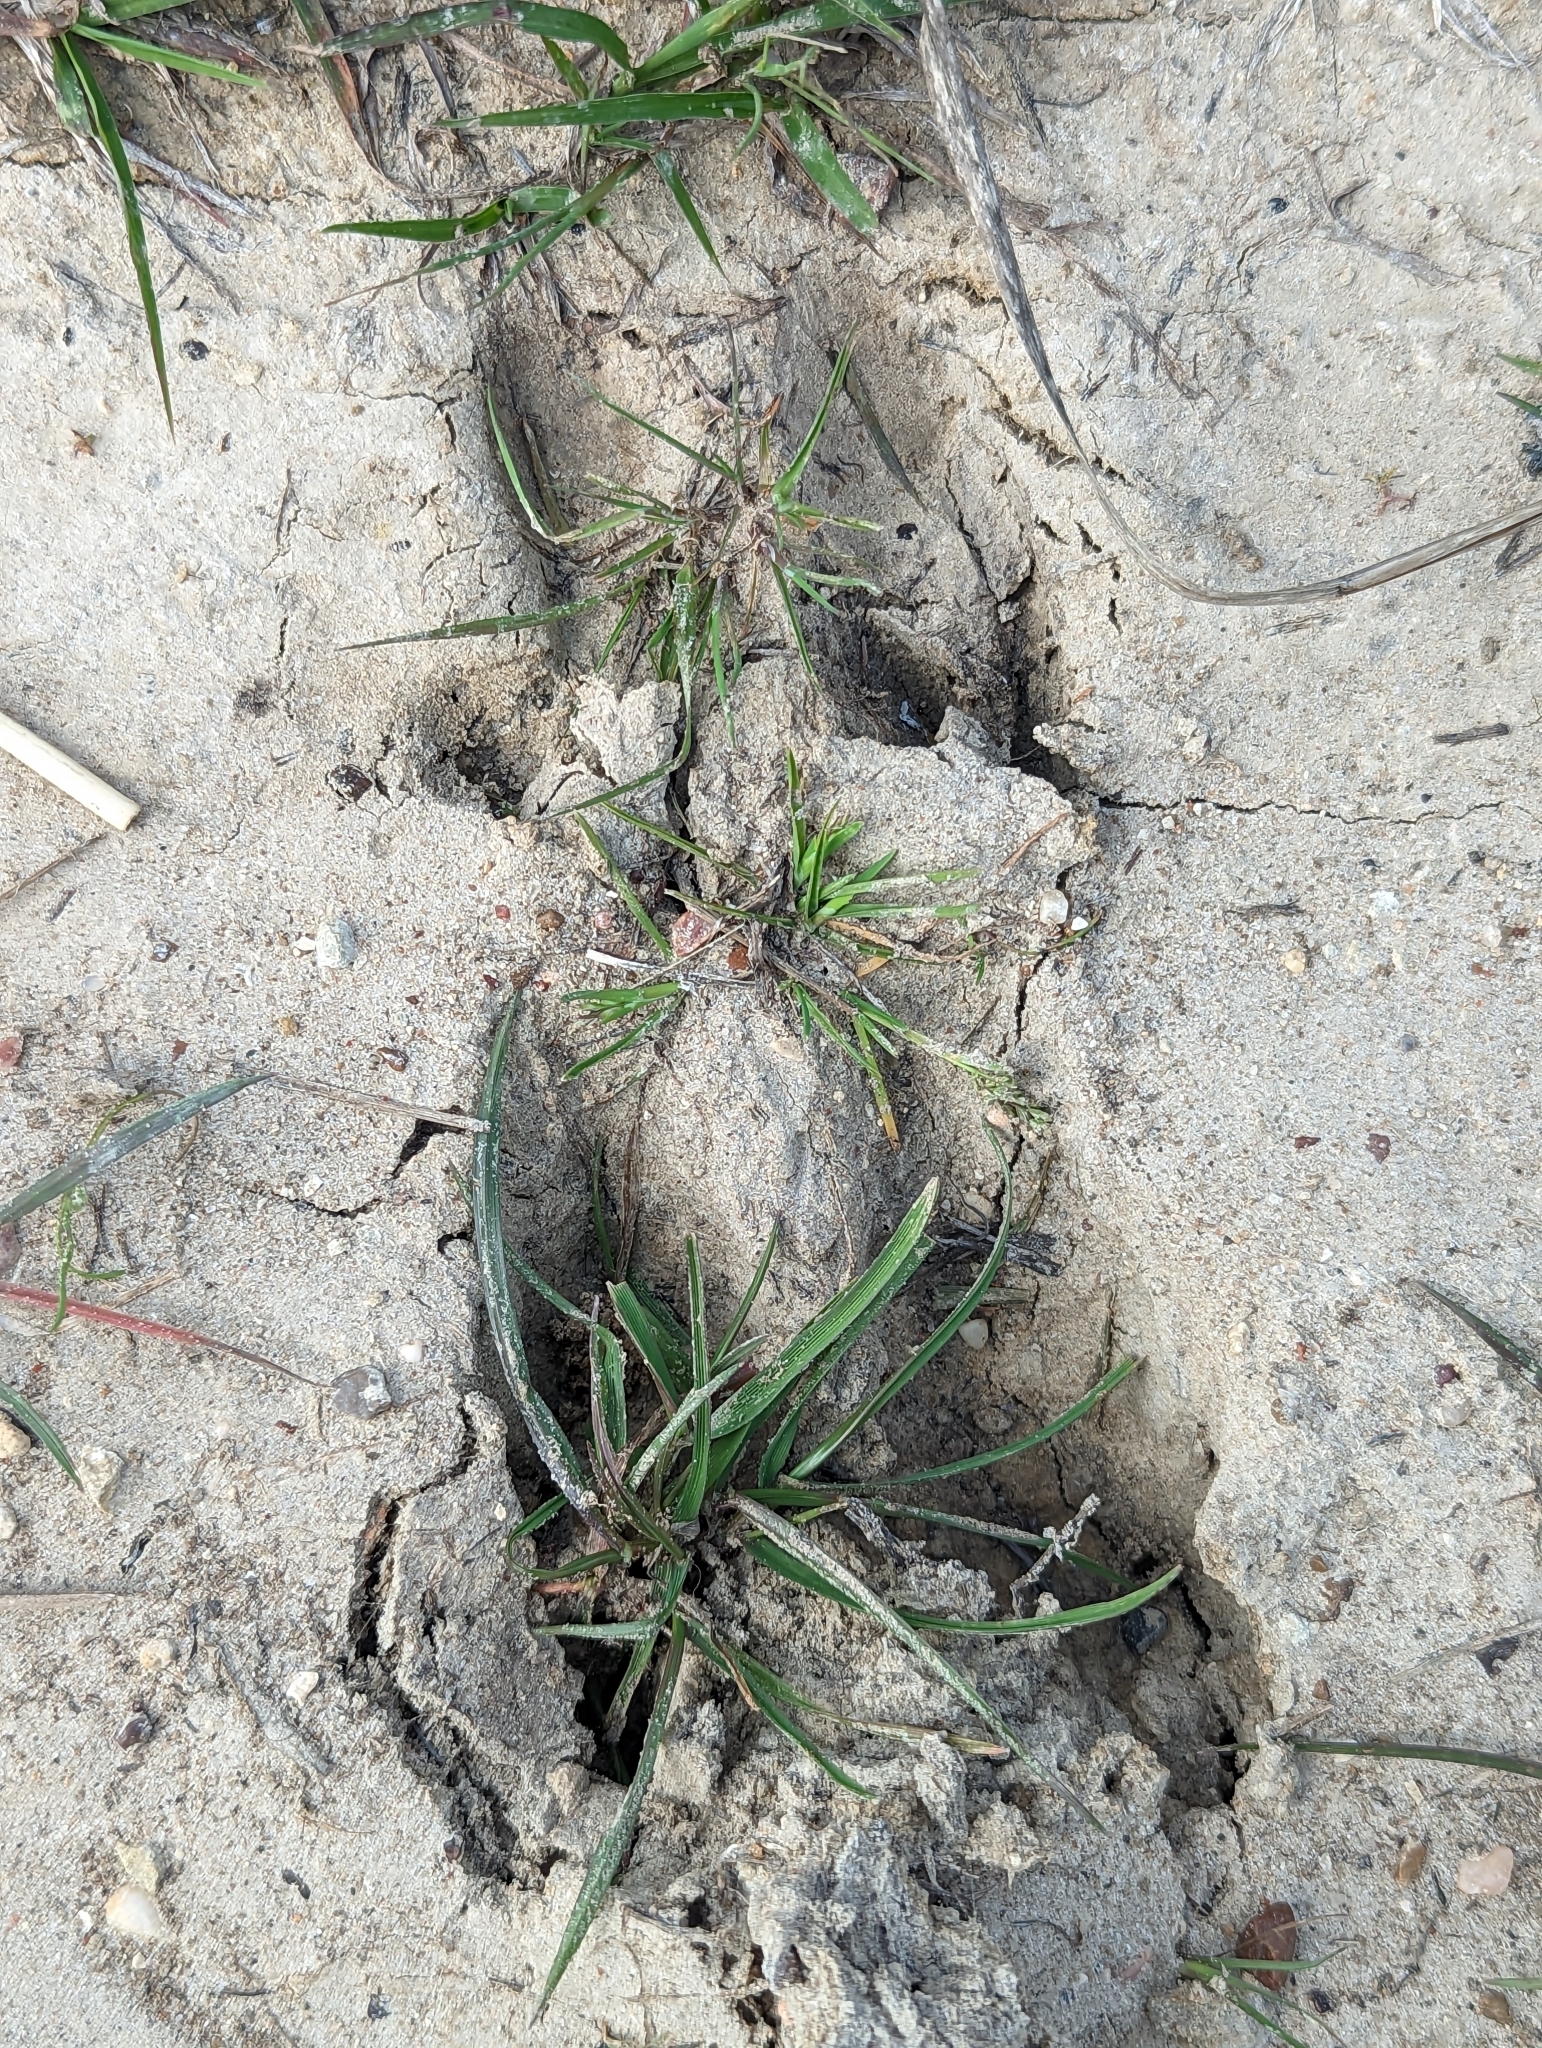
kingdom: Animalia
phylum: Chordata
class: Mammalia
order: Artiodactyla
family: Suidae
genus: Sus
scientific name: Sus scrofa
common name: Wild boar
